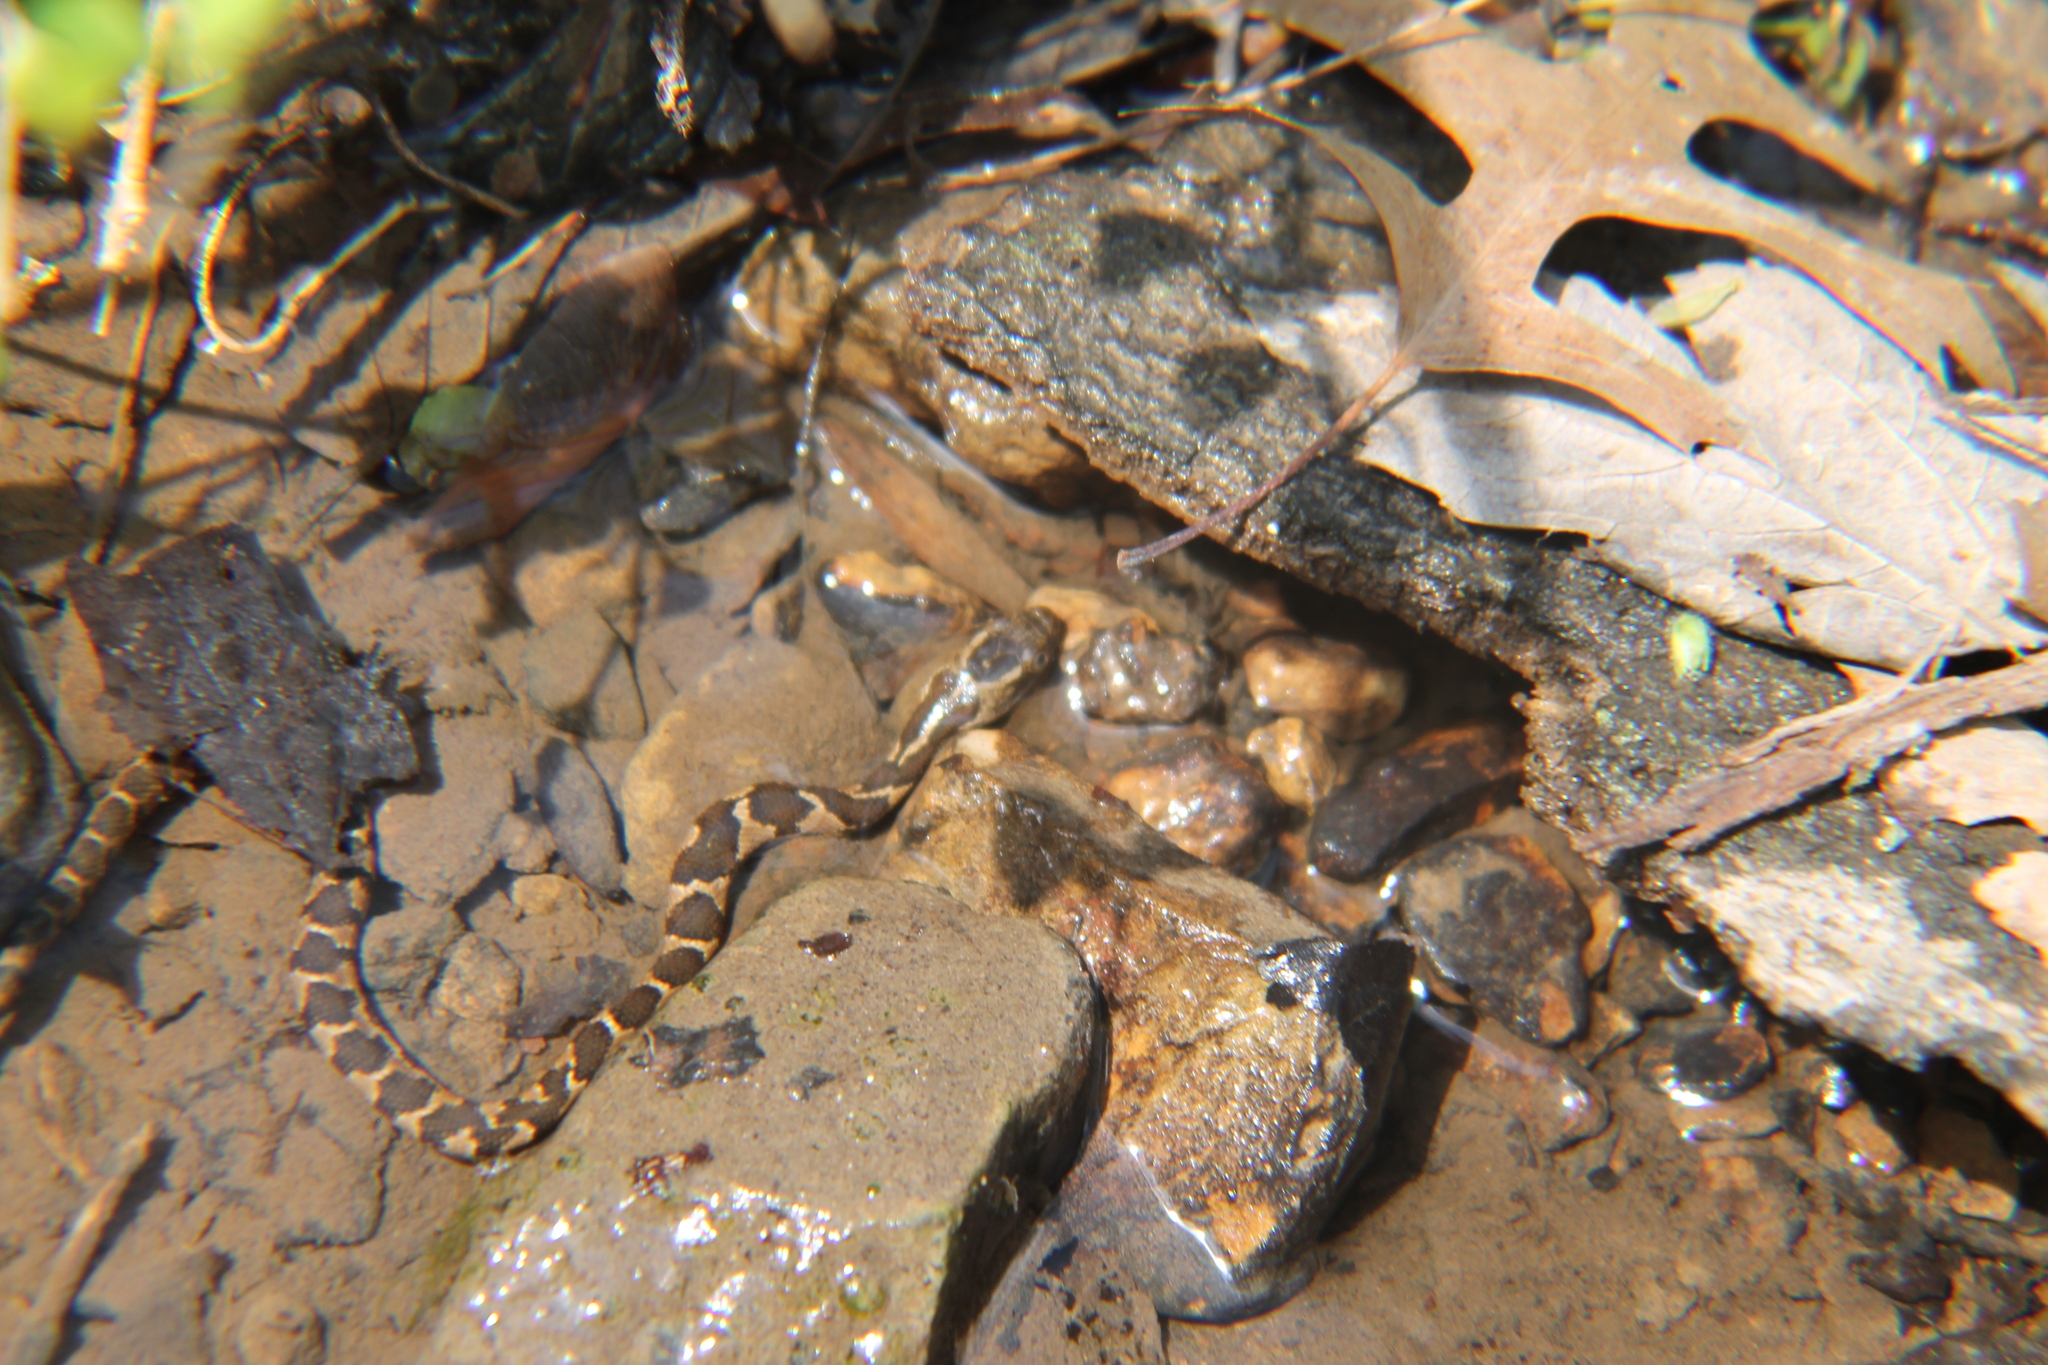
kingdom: Animalia
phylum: Chordata
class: Squamata
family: Colubridae
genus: Nerodia
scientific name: Nerodia sipedon
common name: Northern water snake
